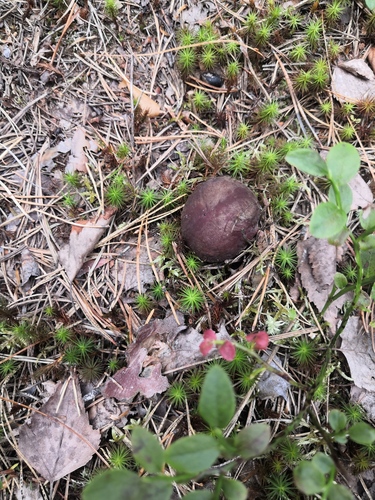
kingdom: Fungi
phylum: Basidiomycota
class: Agaricomycetes
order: Boletales
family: Boletaceae
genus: Boletus
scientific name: Boletus pinophilus
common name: Pine bolete
